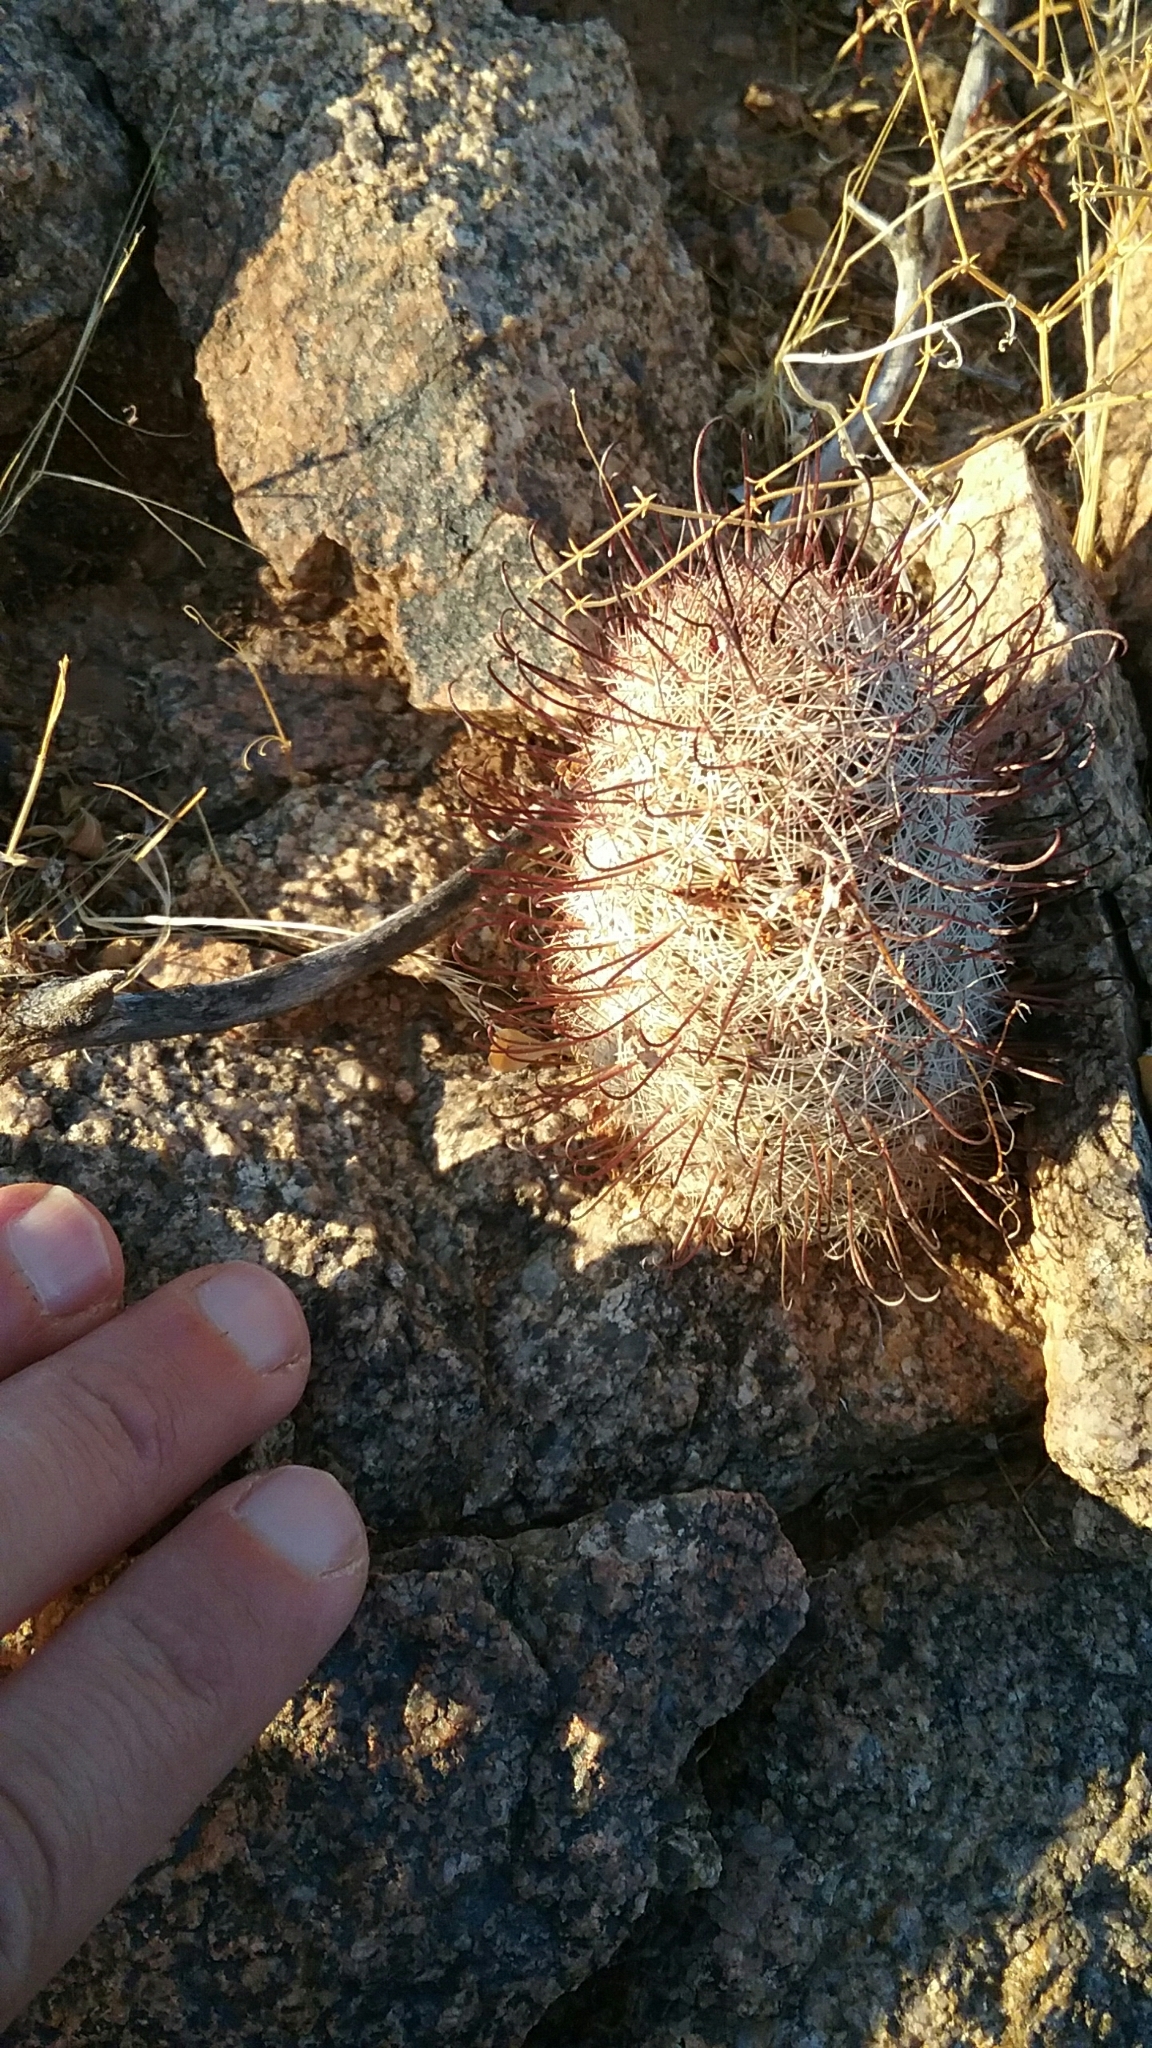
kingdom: Plantae
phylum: Tracheophyta
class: Magnoliopsida
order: Caryophyllales
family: Cactaceae
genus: Cochemiea
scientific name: Cochemiea grahamii
